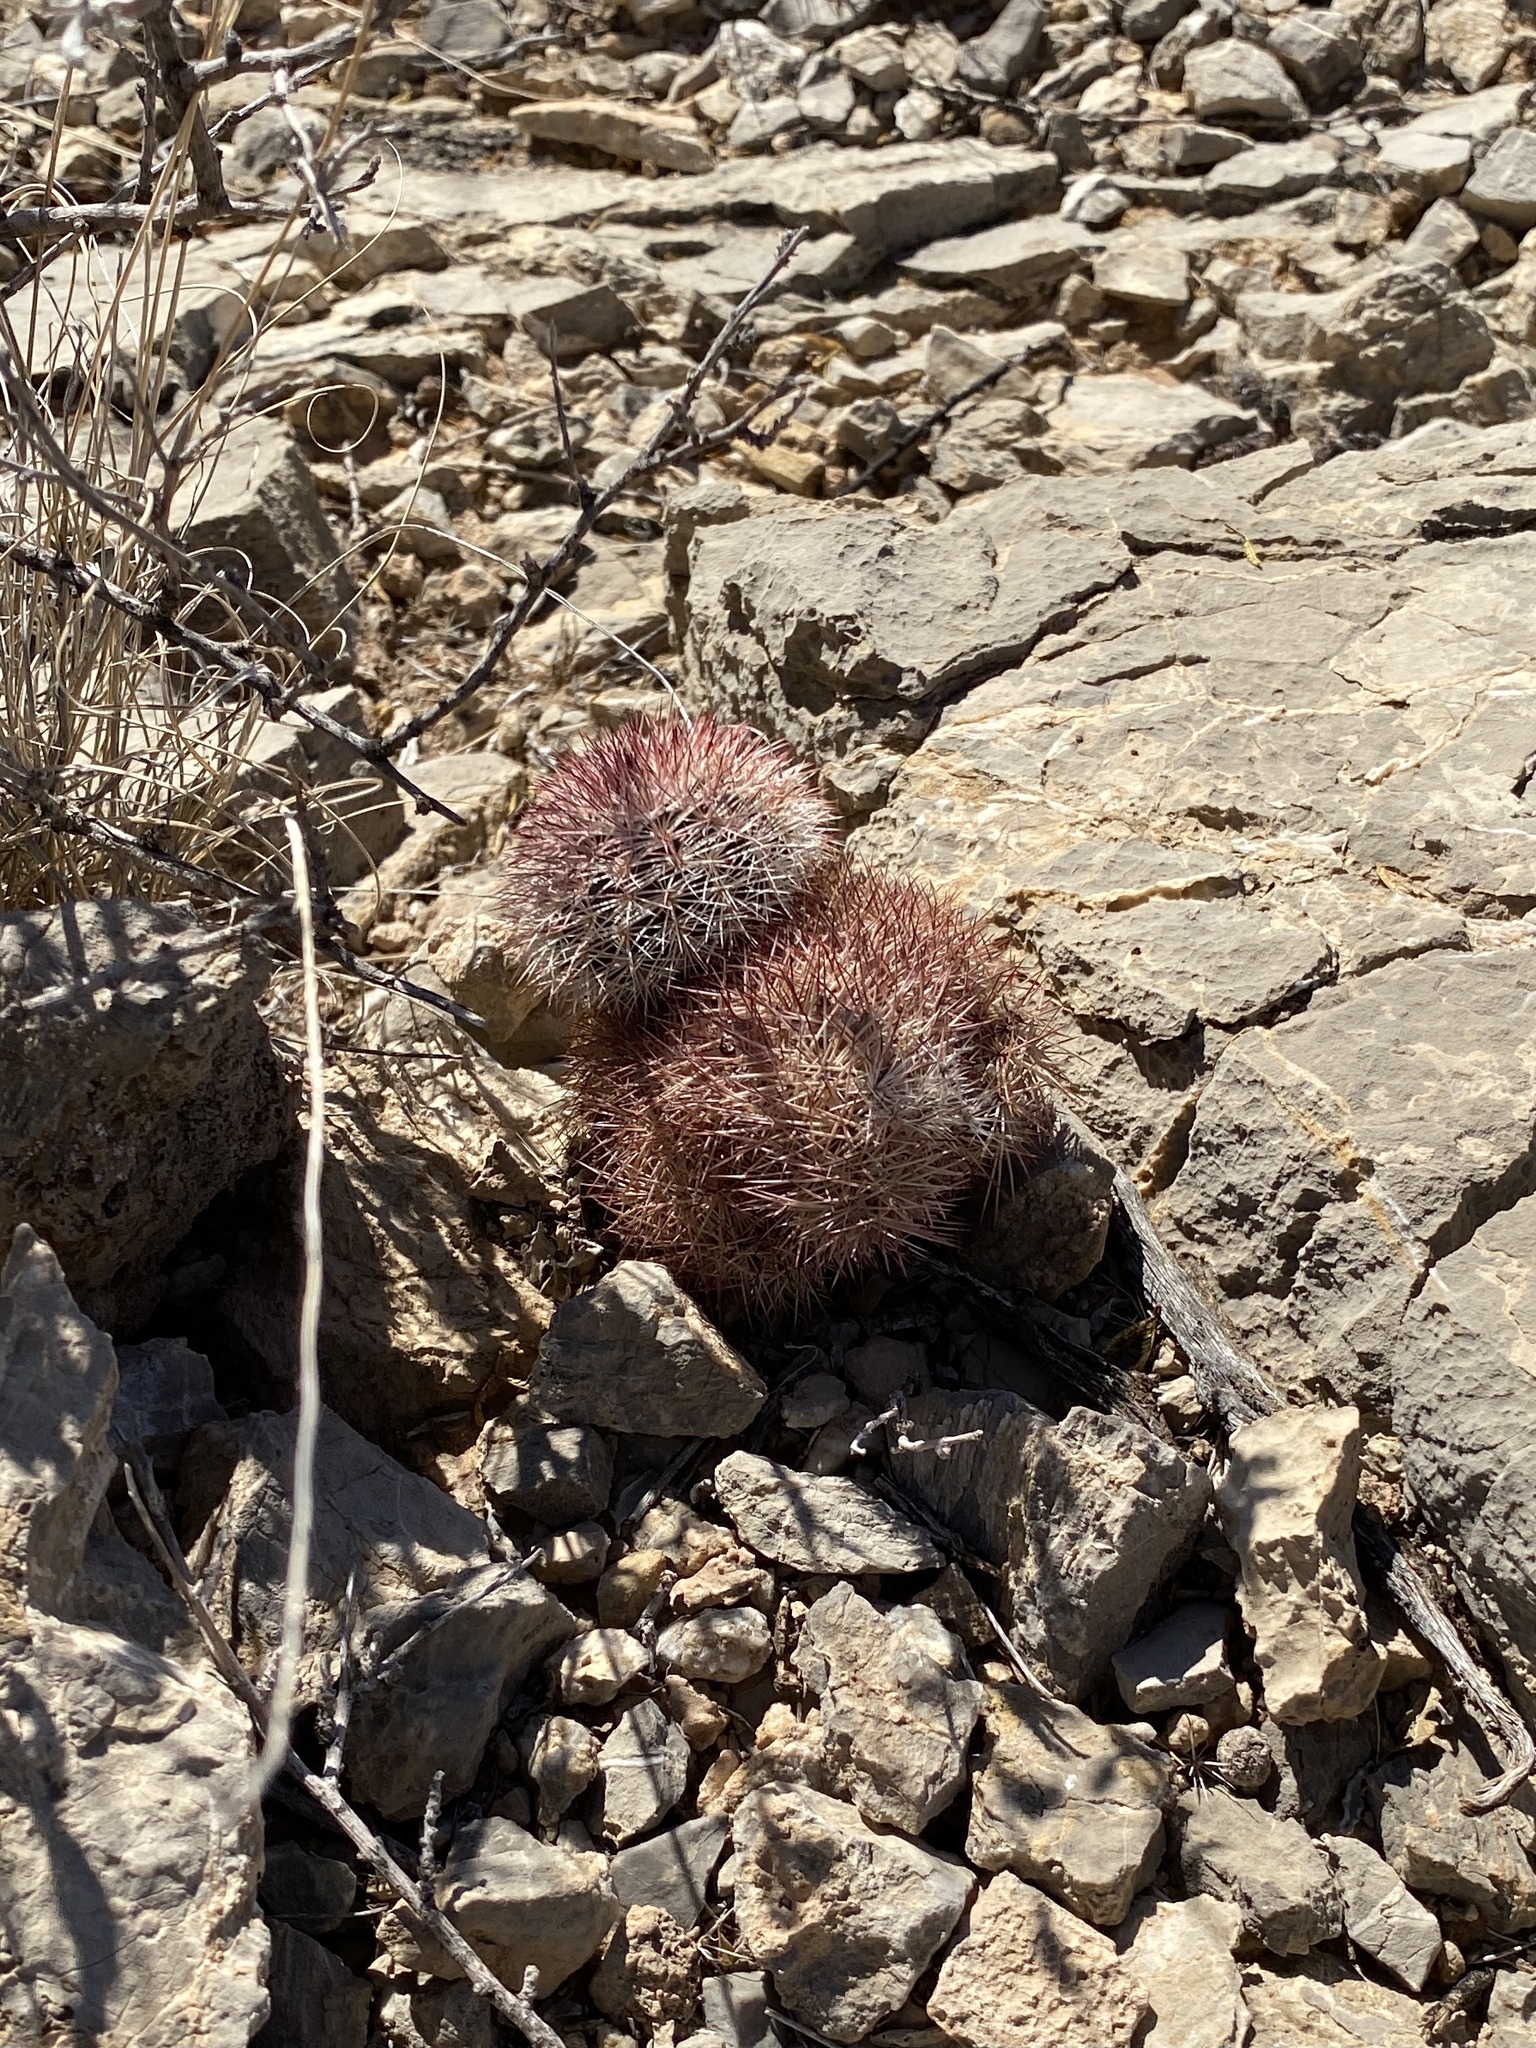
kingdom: Plantae
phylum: Tracheophyta
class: Magnoliopsida
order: Caryophyllales
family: Cactaceae
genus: Echinocereus
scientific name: Echinocereus dasyacanthus
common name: Spiny hedgehog cactus
